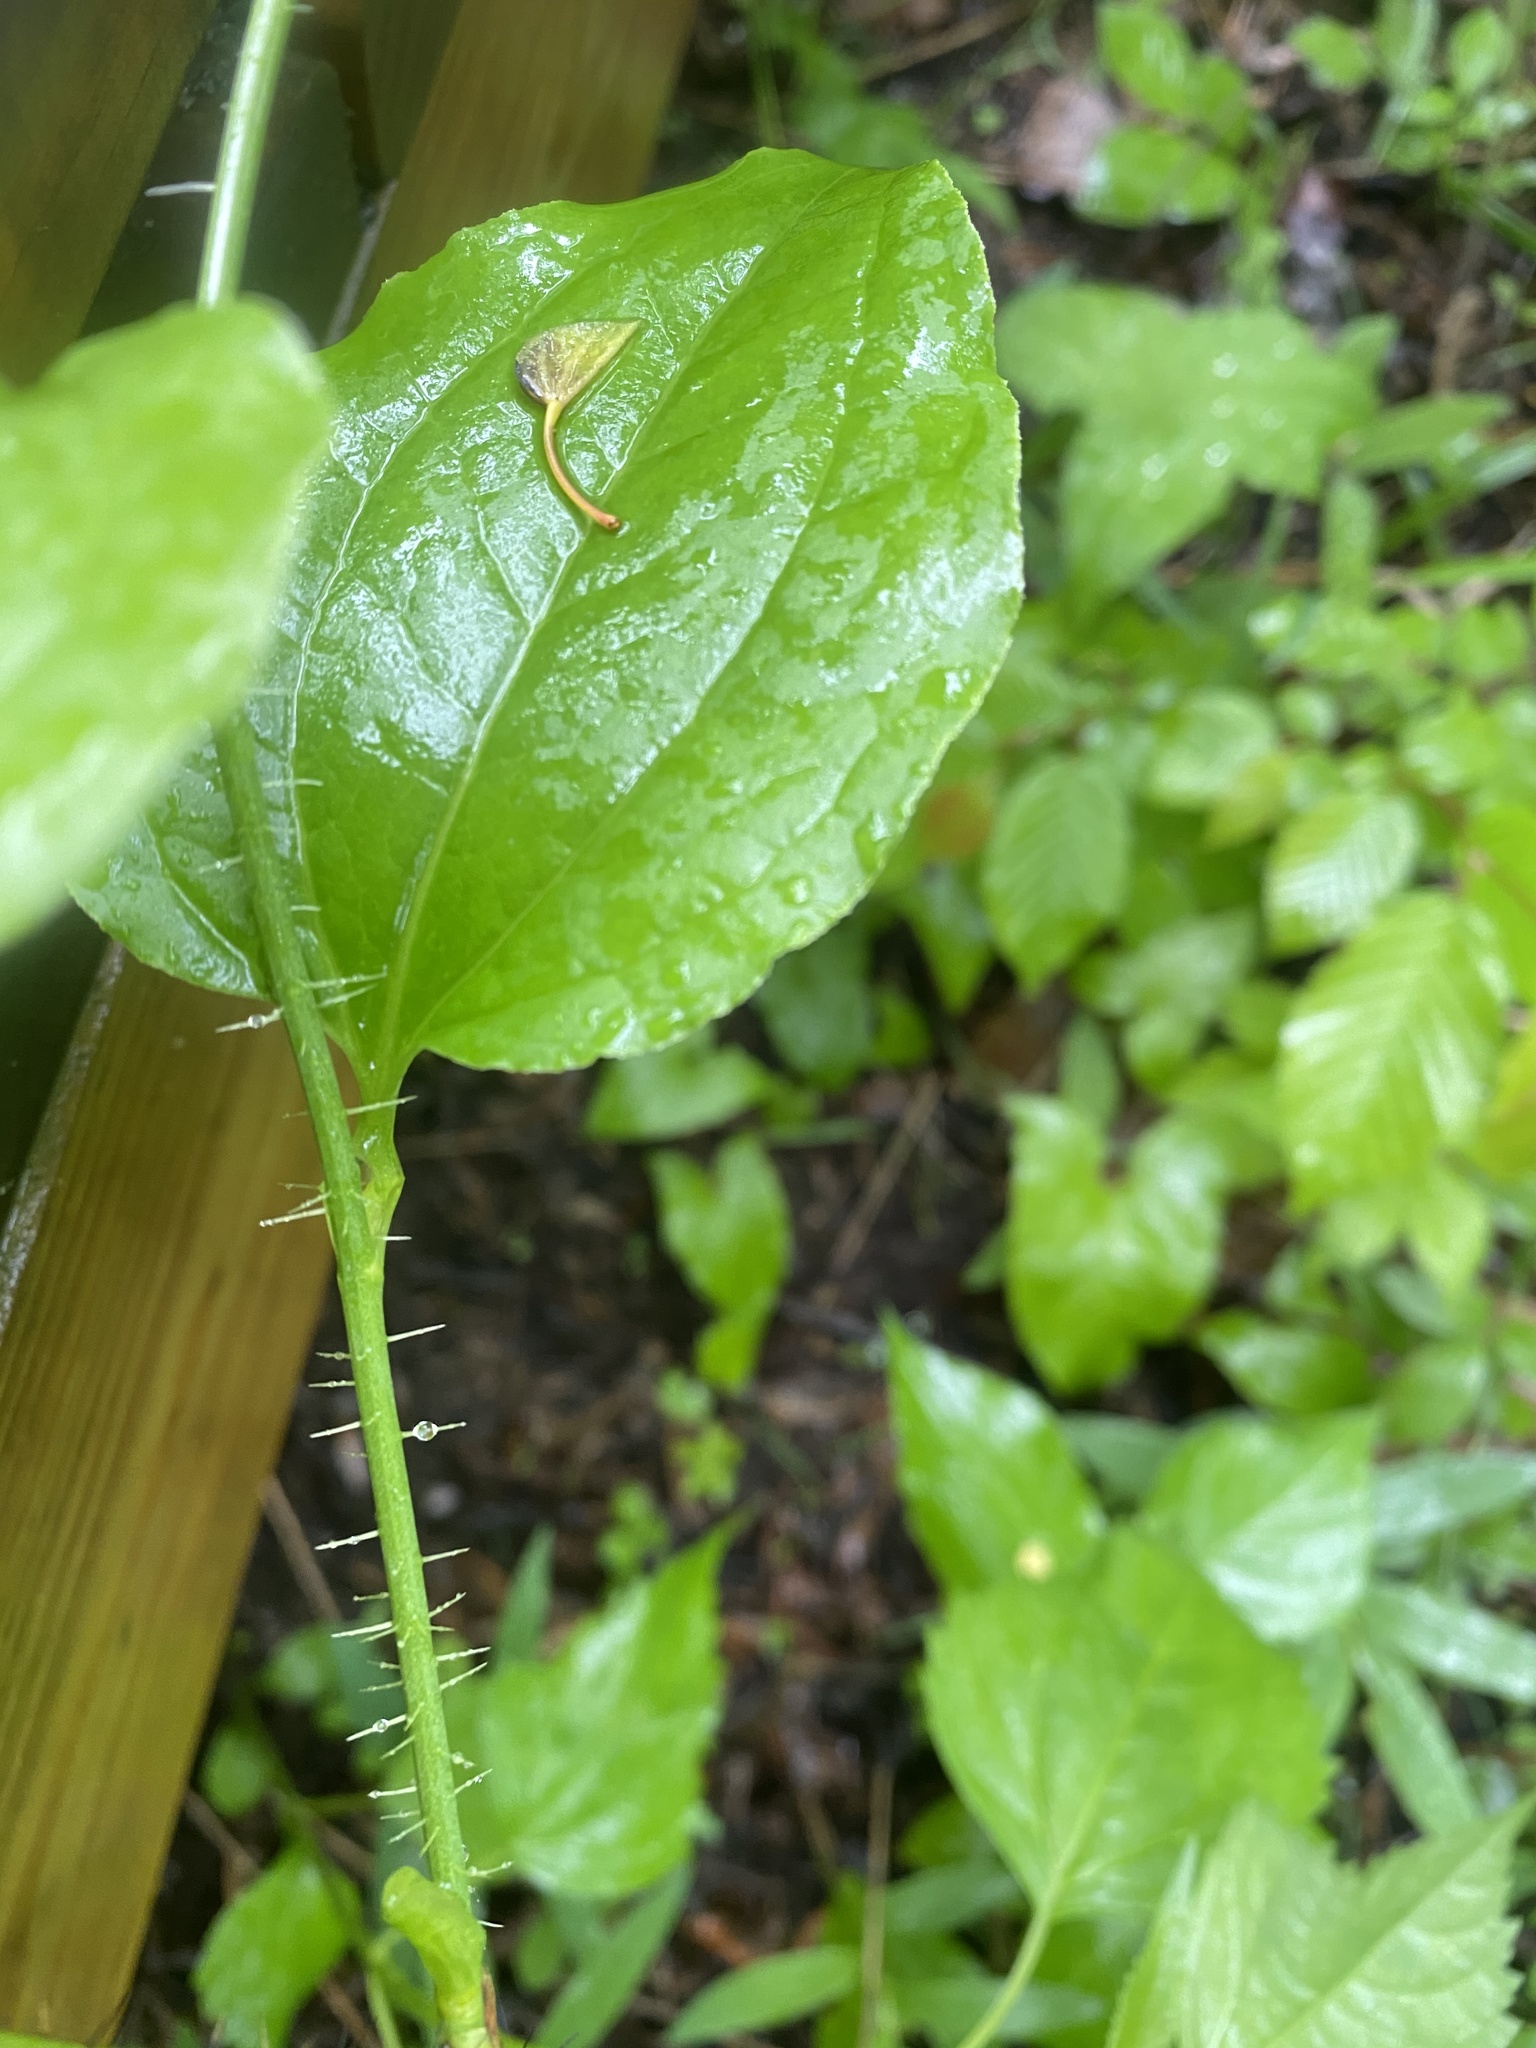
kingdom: Plantae
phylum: Tracheophyta
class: Liliopsida
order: Liliales
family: Smilacaceae
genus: Smilax
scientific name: Smilax tamnoides
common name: Hellfetter
